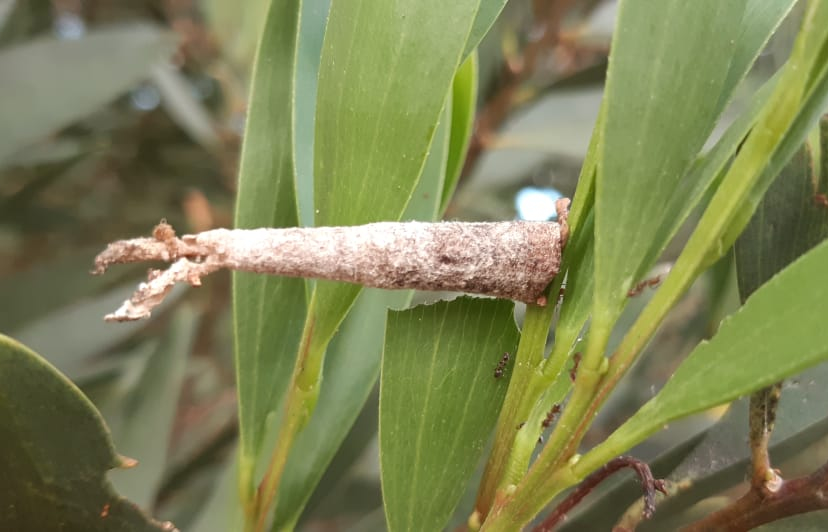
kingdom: Animalia
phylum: Arthropoda
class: Insecta
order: Lepidoptera
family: Psychidae
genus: Oiketicus
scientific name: Oiketicus geyeri
